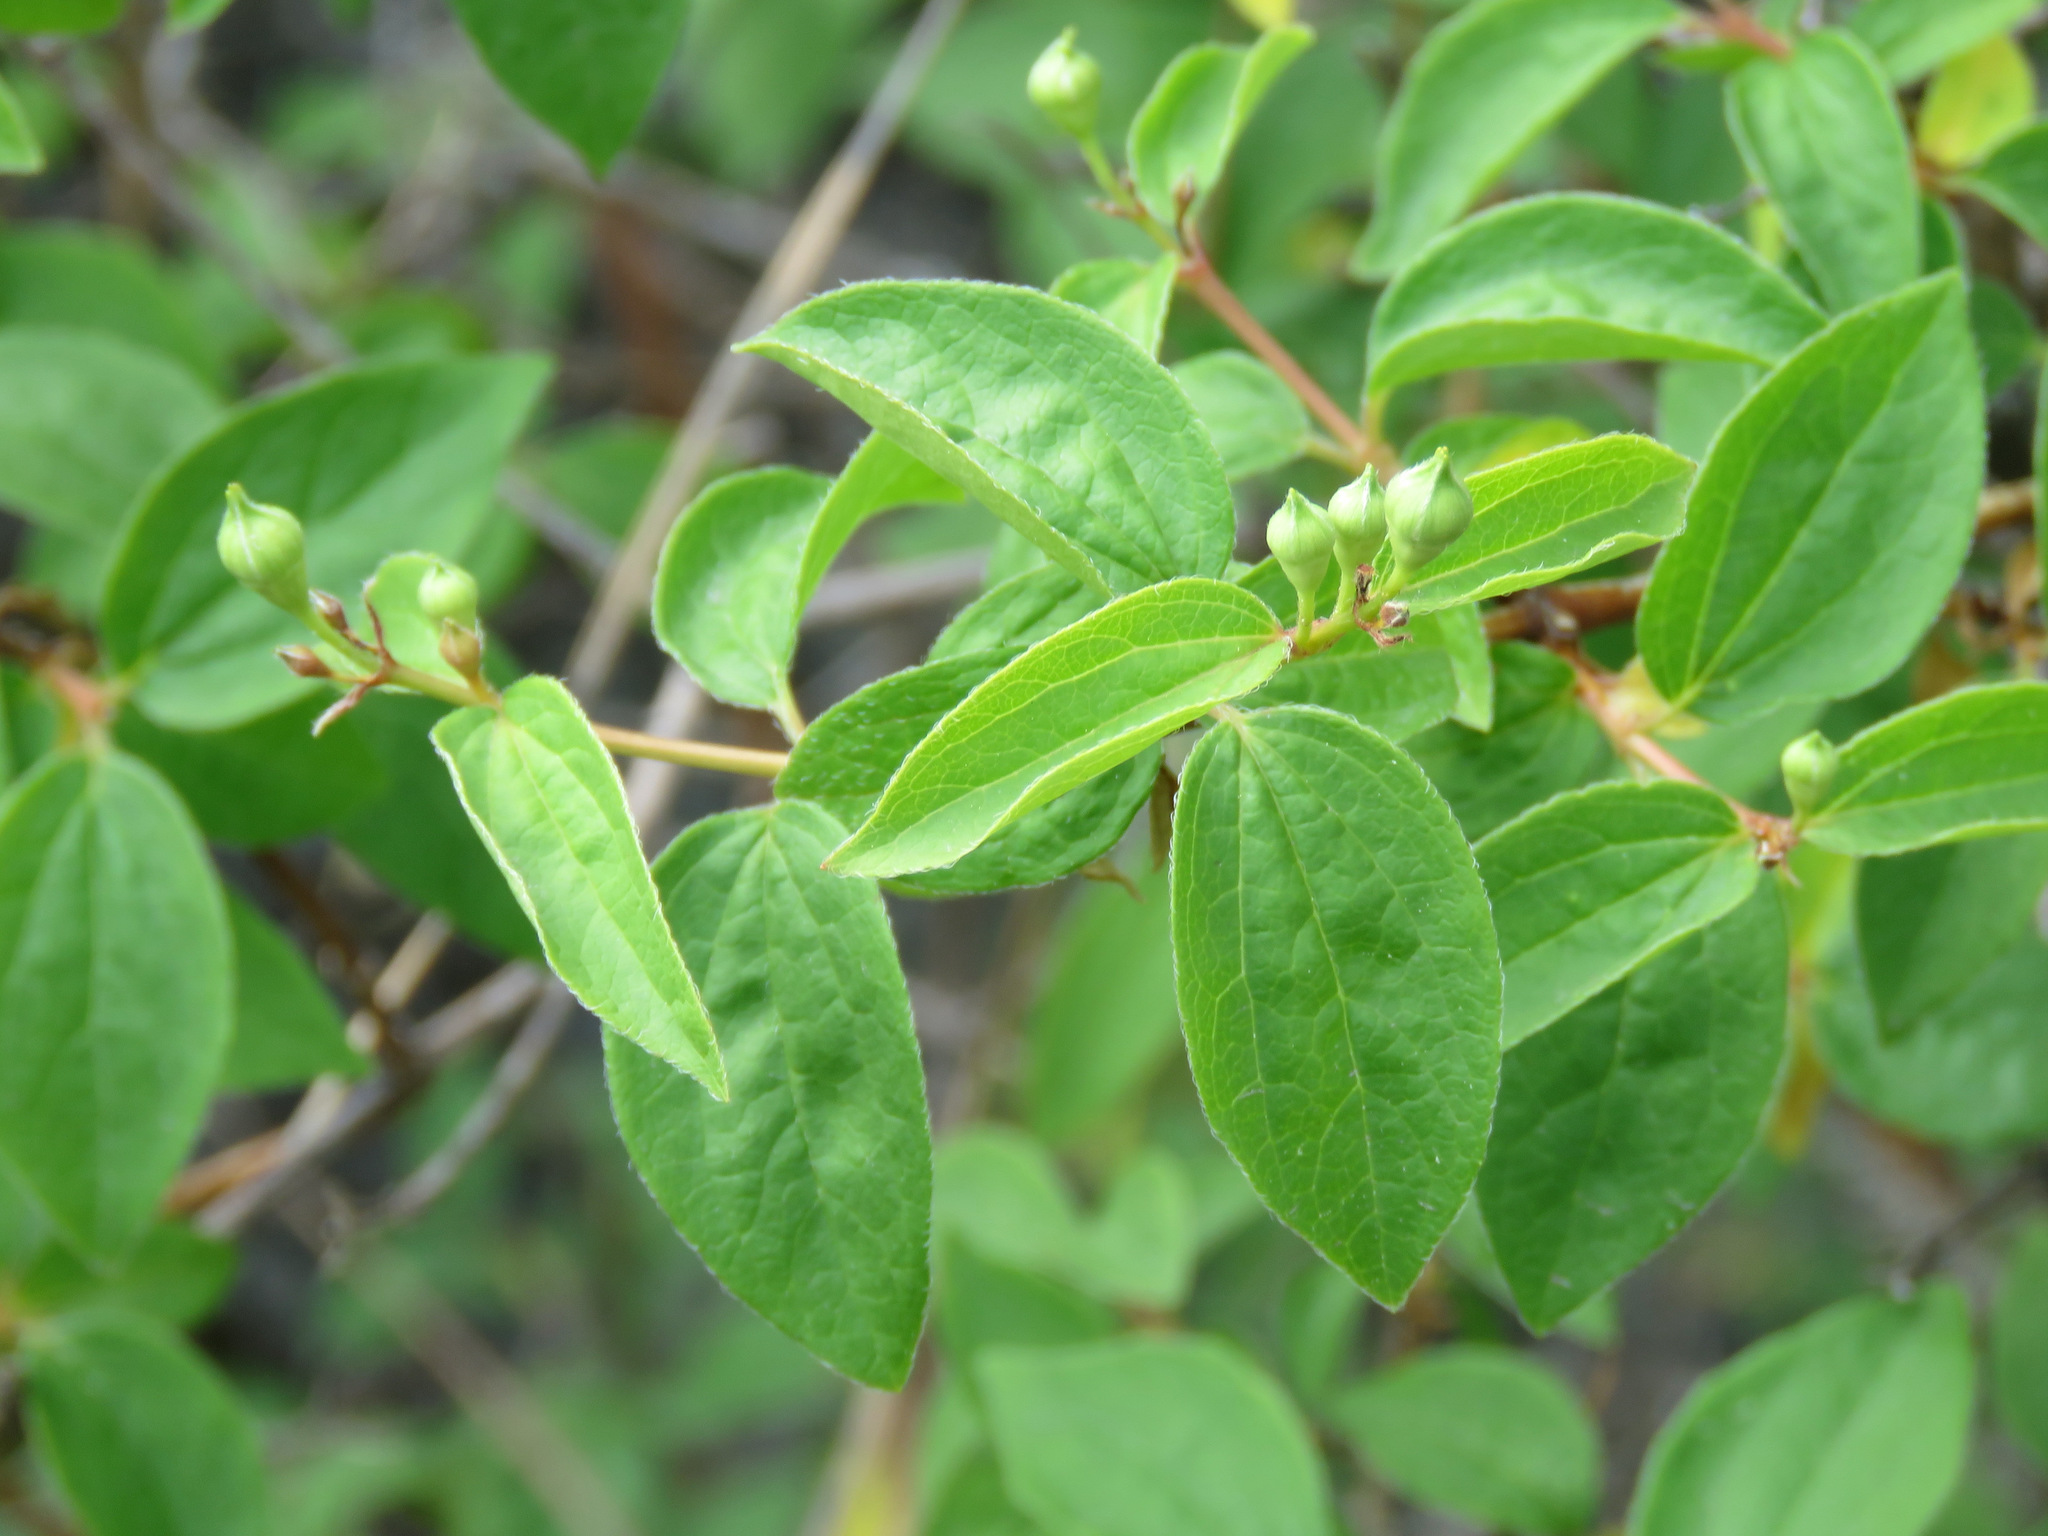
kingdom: Plantae
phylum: Tracheophyta
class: Magnoliopsida
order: Cornales
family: Hydrangeaceae
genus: Philadelphus
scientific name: Philadelphus lewisii
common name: Lewis's mock orange
